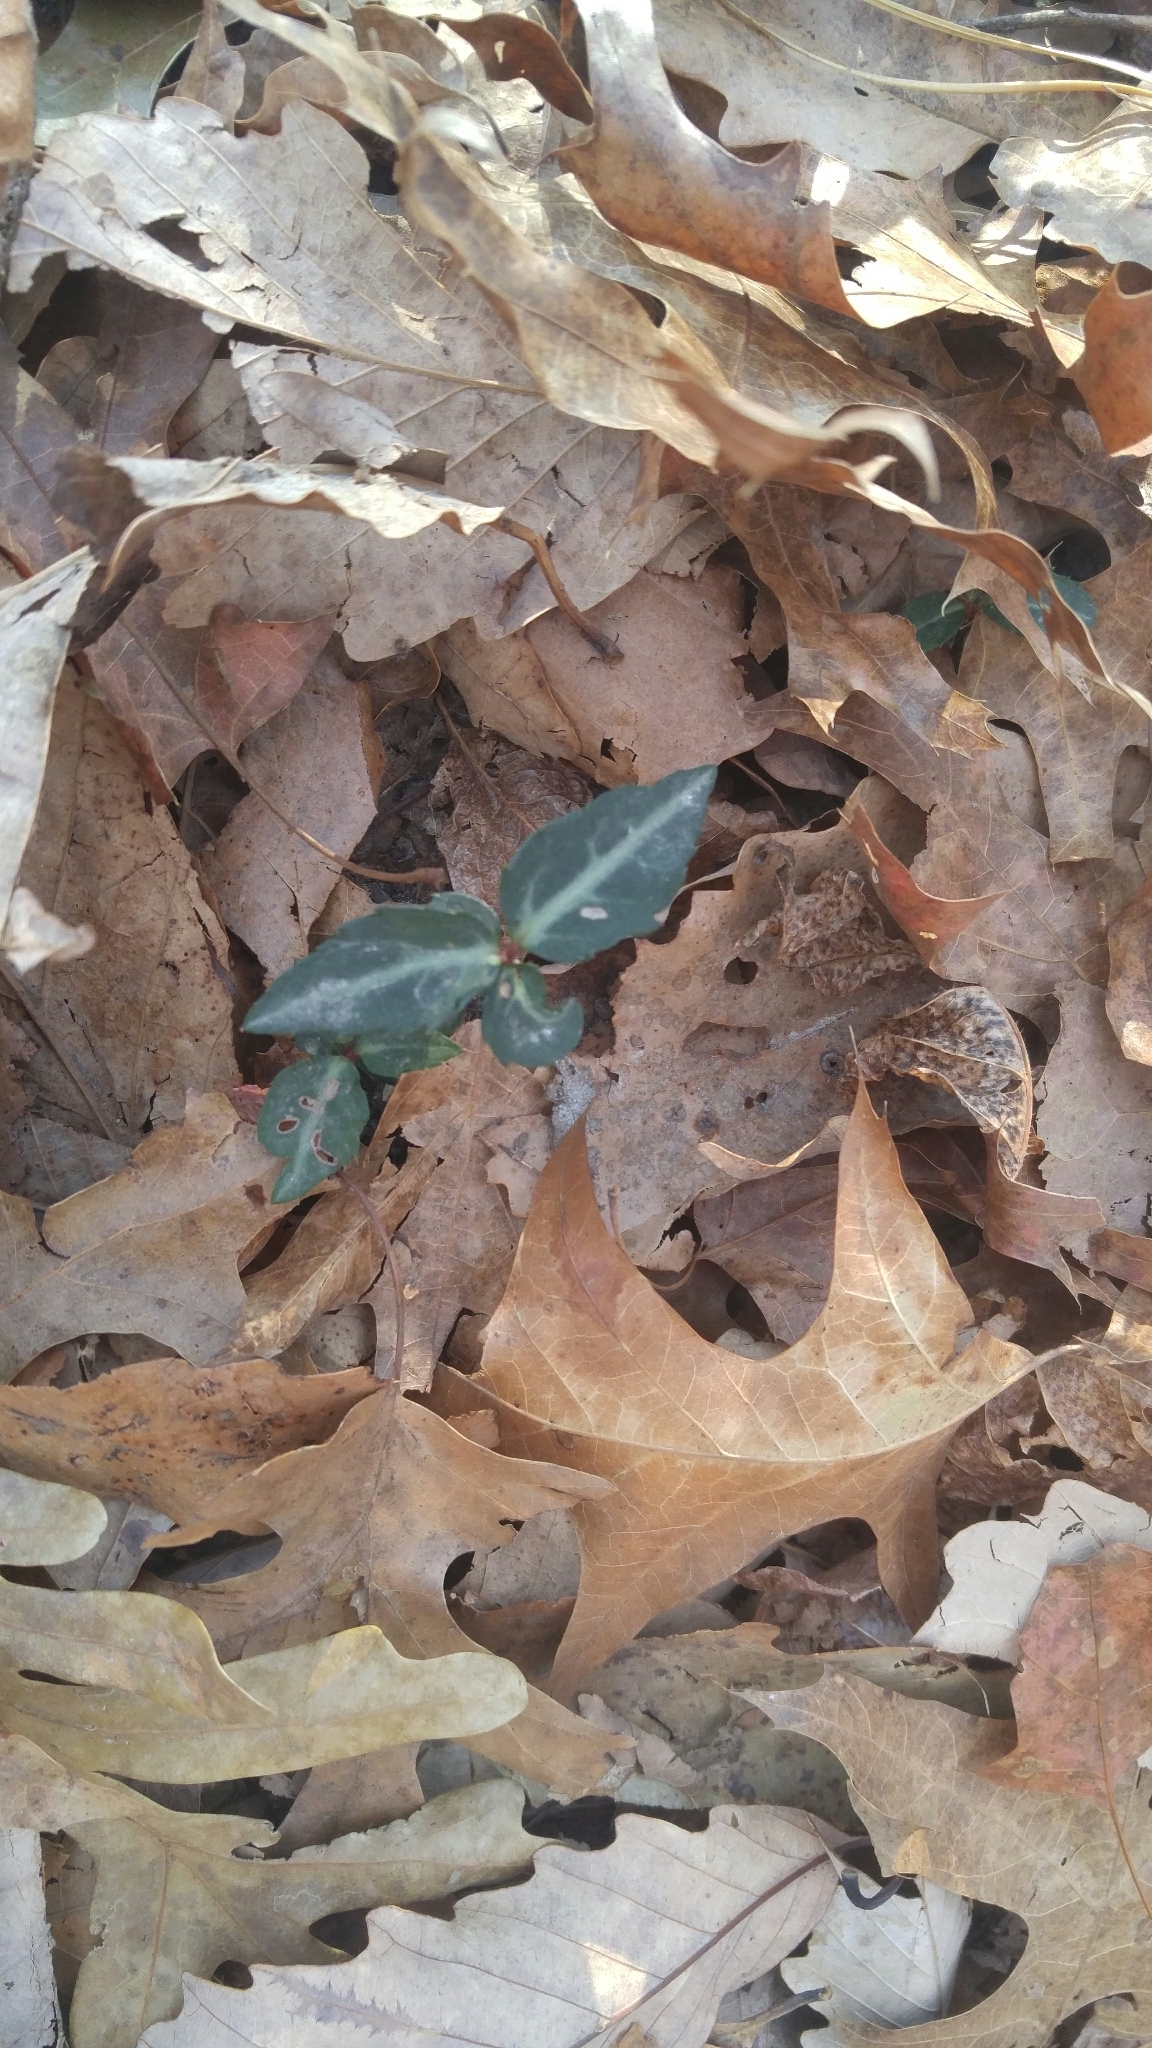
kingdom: Plantae
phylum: Tracheophyta
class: Magnoliopsida
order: Ericales
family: Ericaceae
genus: Chimaphila
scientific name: Chimaphila maculata
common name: Spotted pipsissewa
